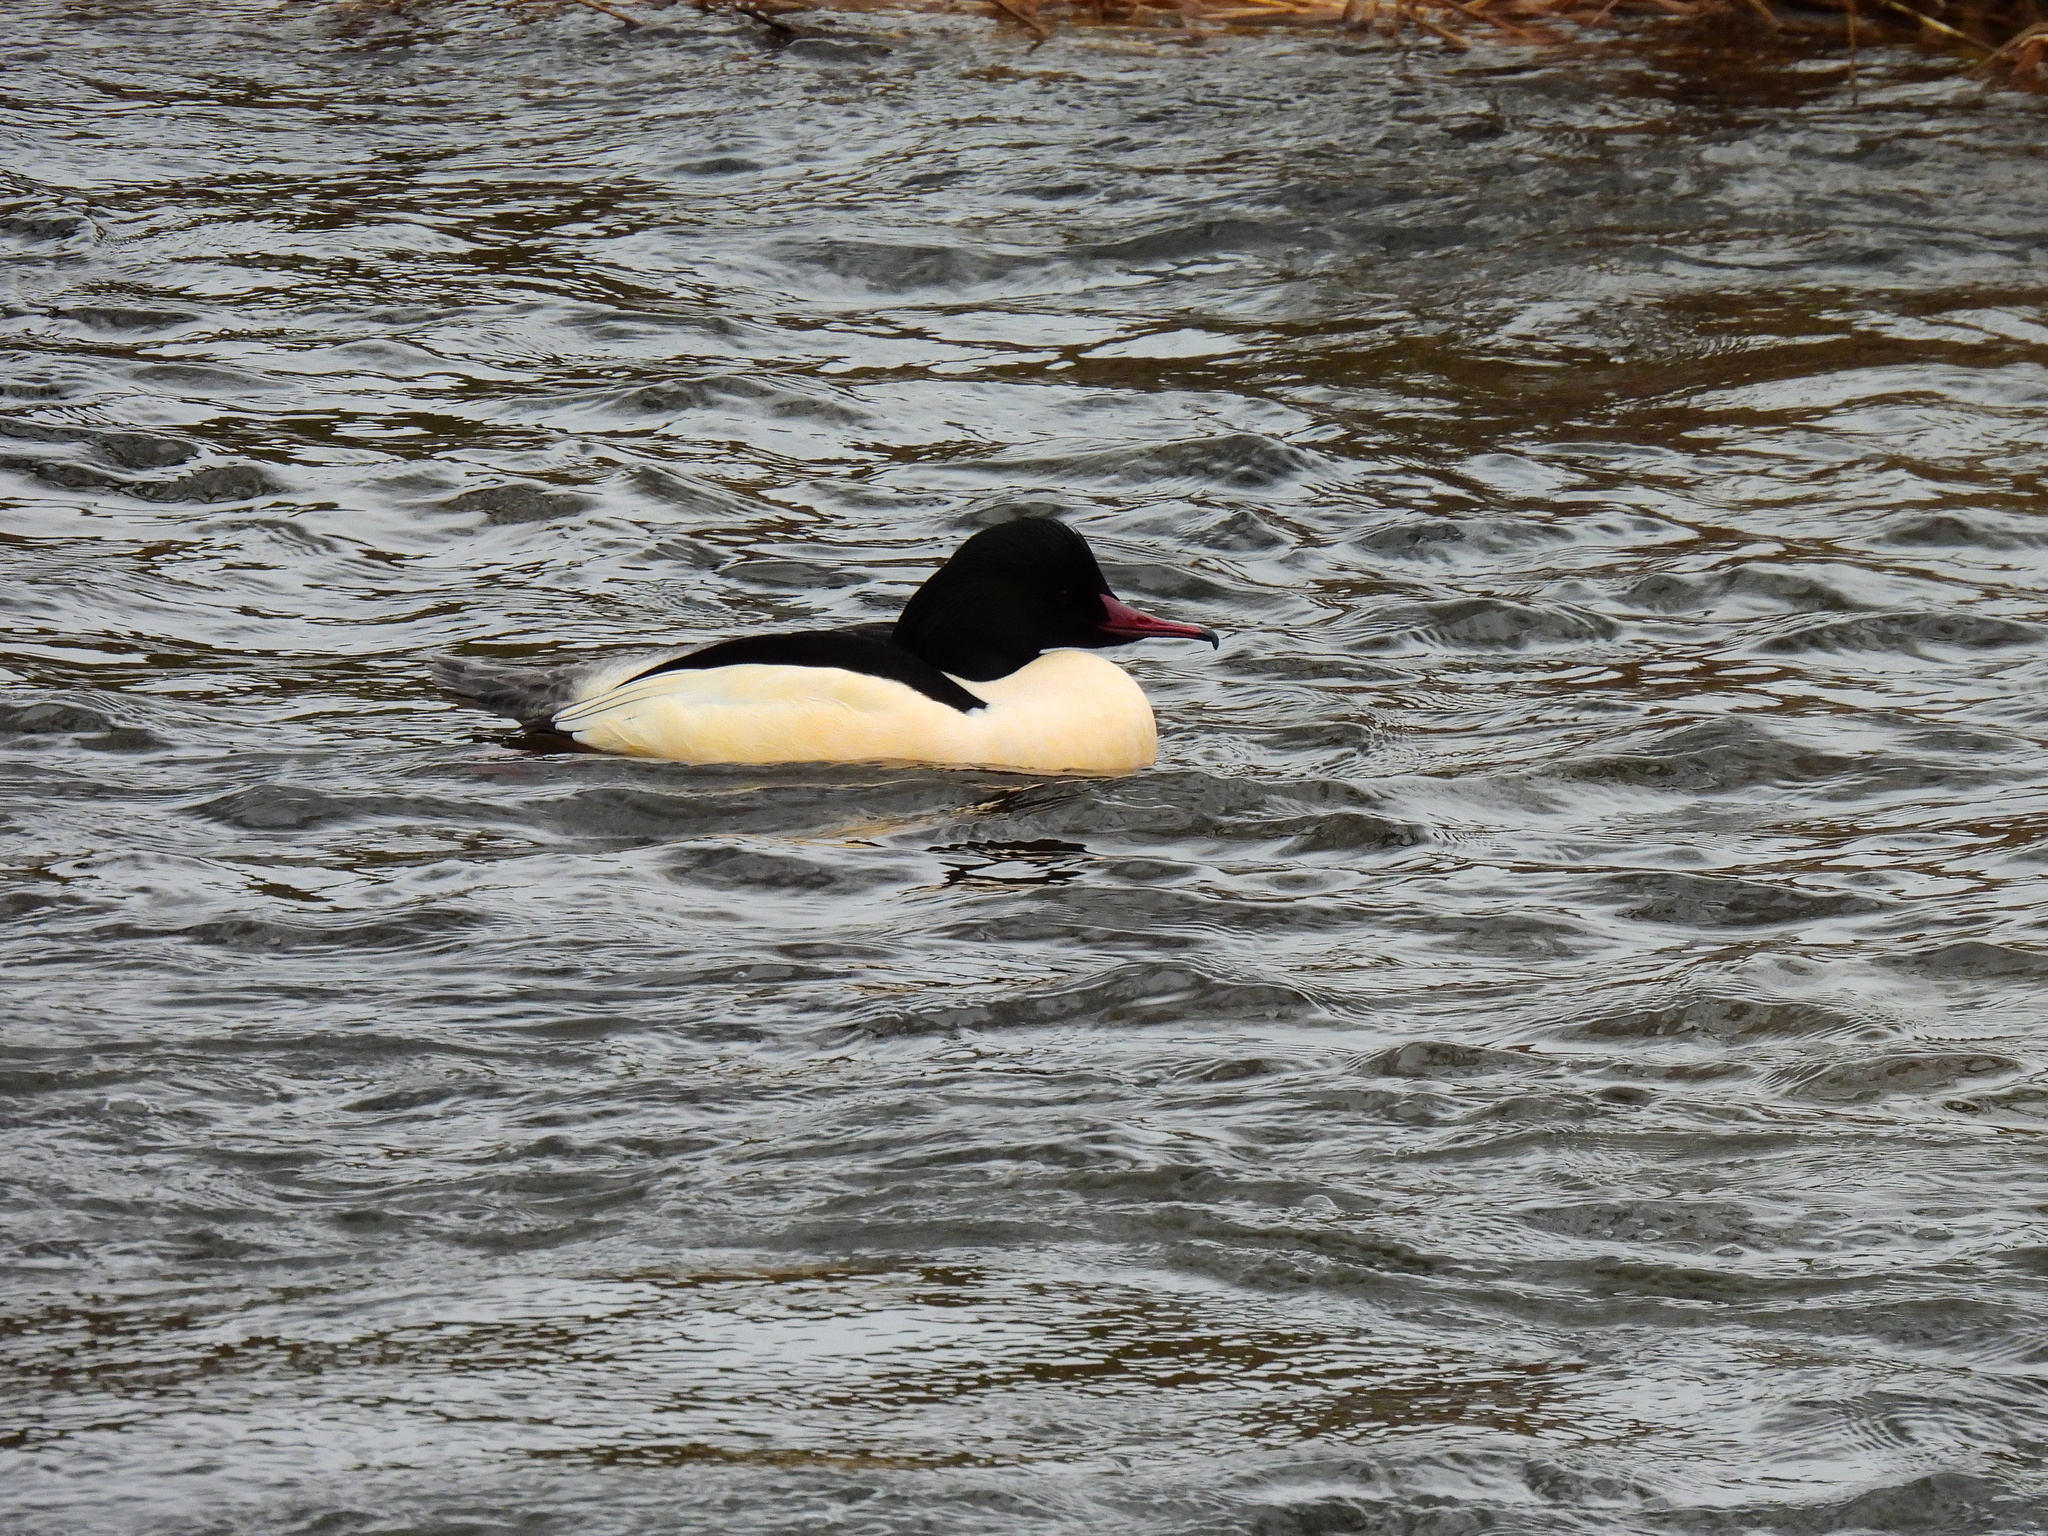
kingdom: Animalia
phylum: Chordata
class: Aves
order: Anseriformes
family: Anatidae
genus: Mergus
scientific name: Mergus merganser
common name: Common merganser
